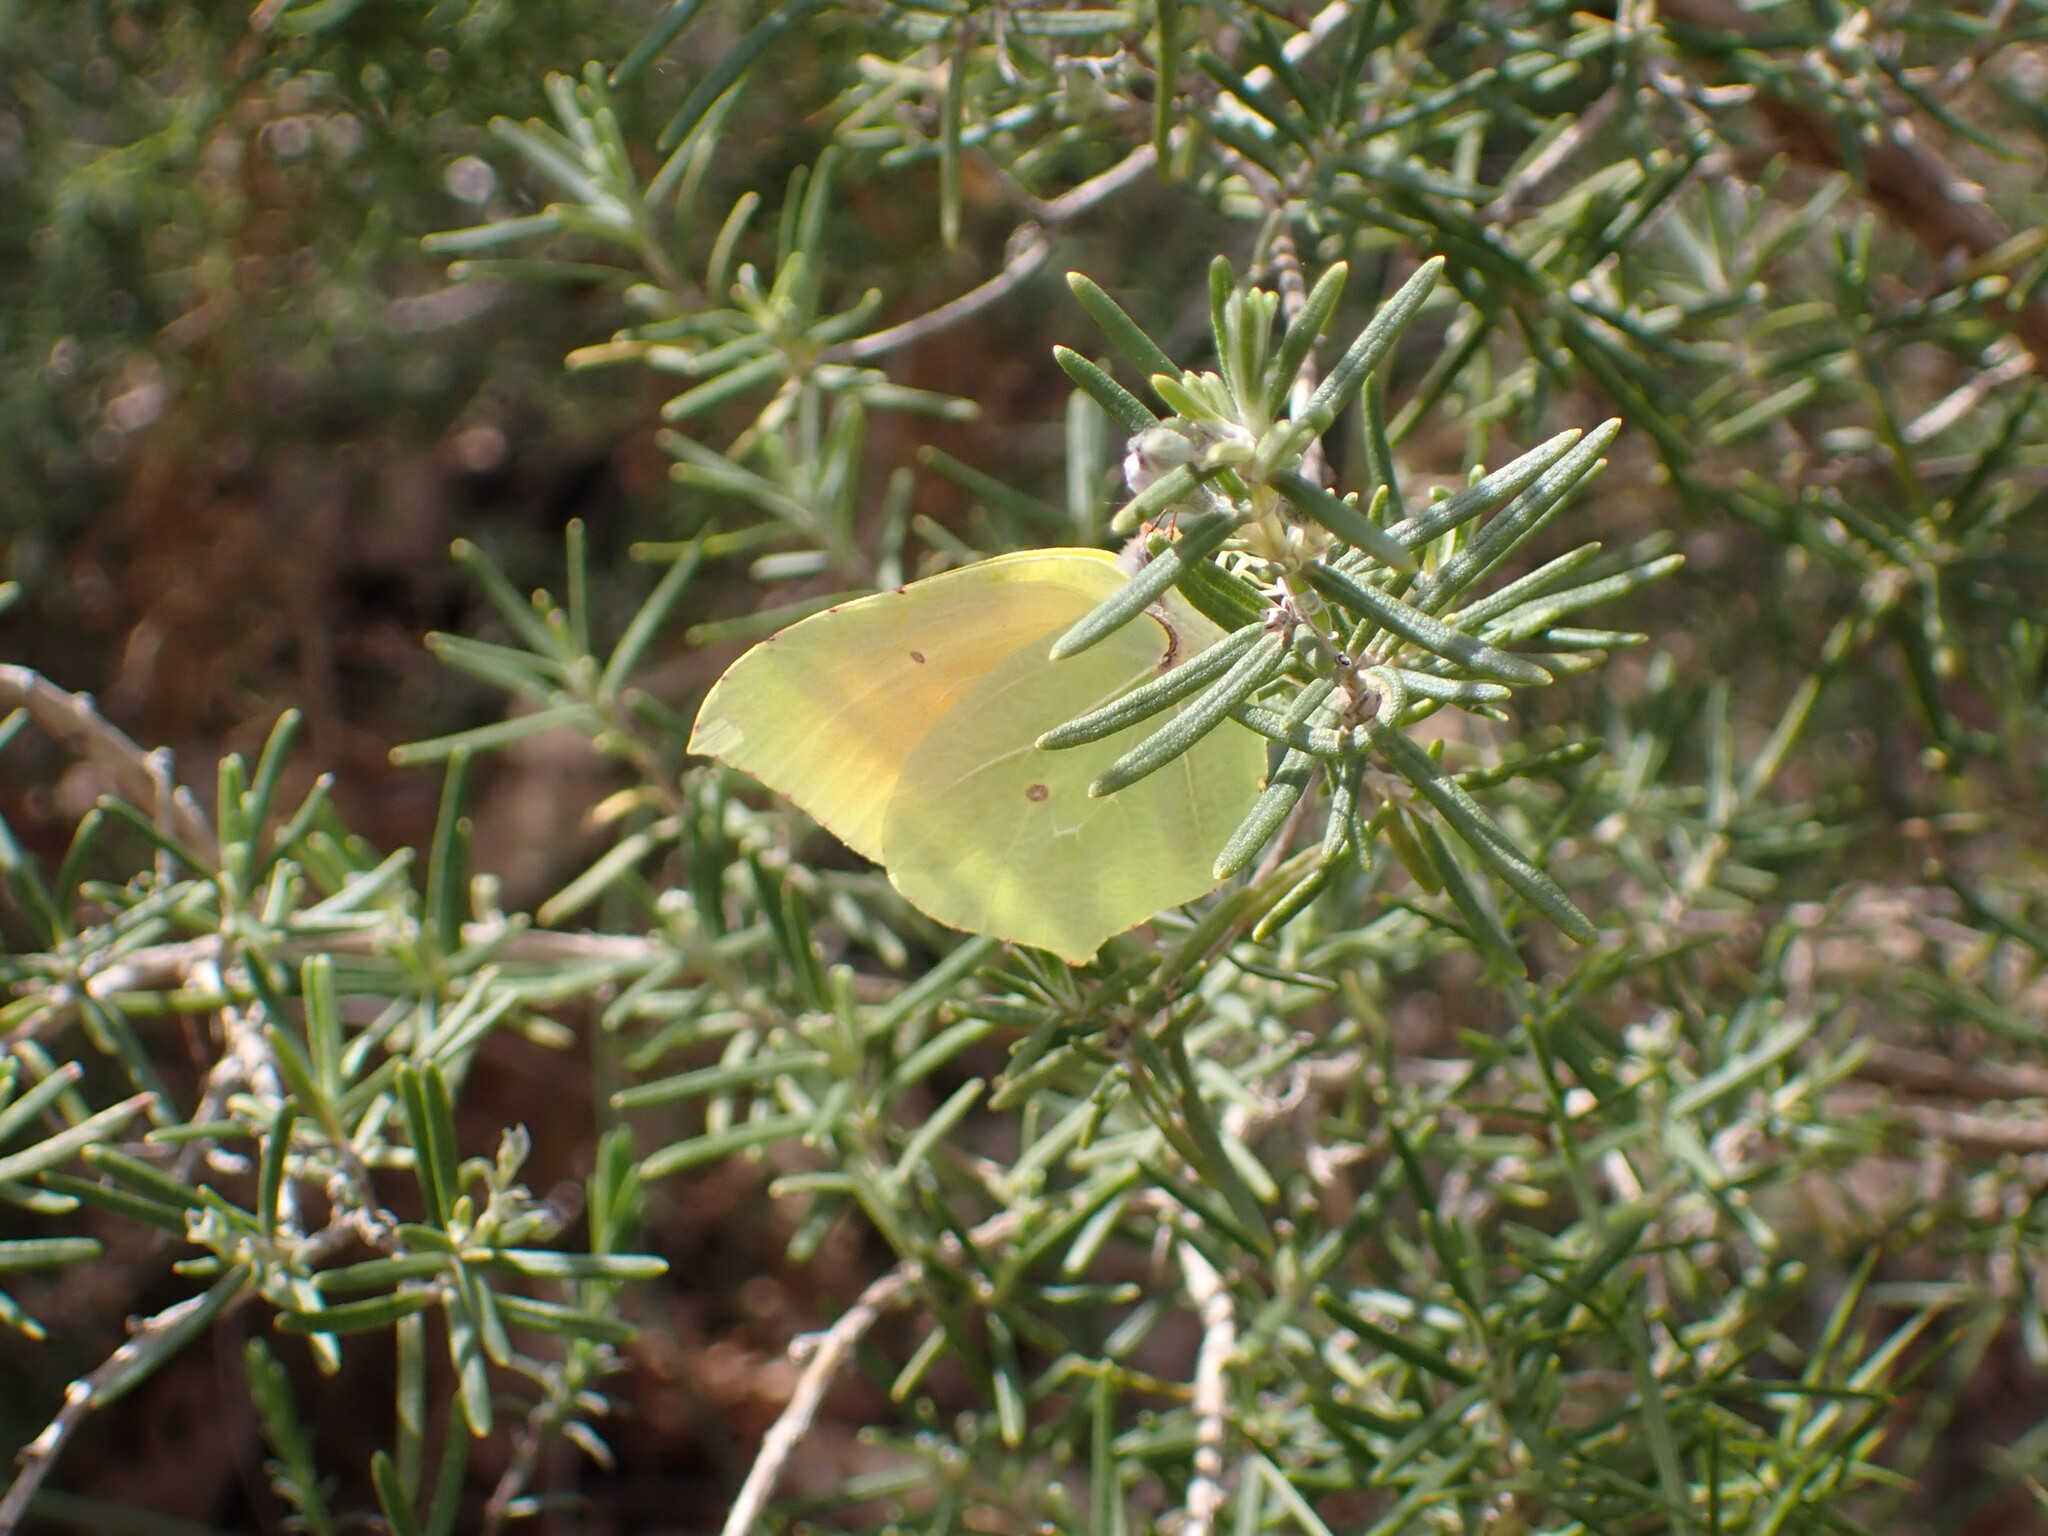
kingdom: Animalia
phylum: Arthropoda
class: Insecta
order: Lepidoptera
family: Pieridae
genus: Gonepteryx
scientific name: Gonepteryx cleopatra
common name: Cleopatra
